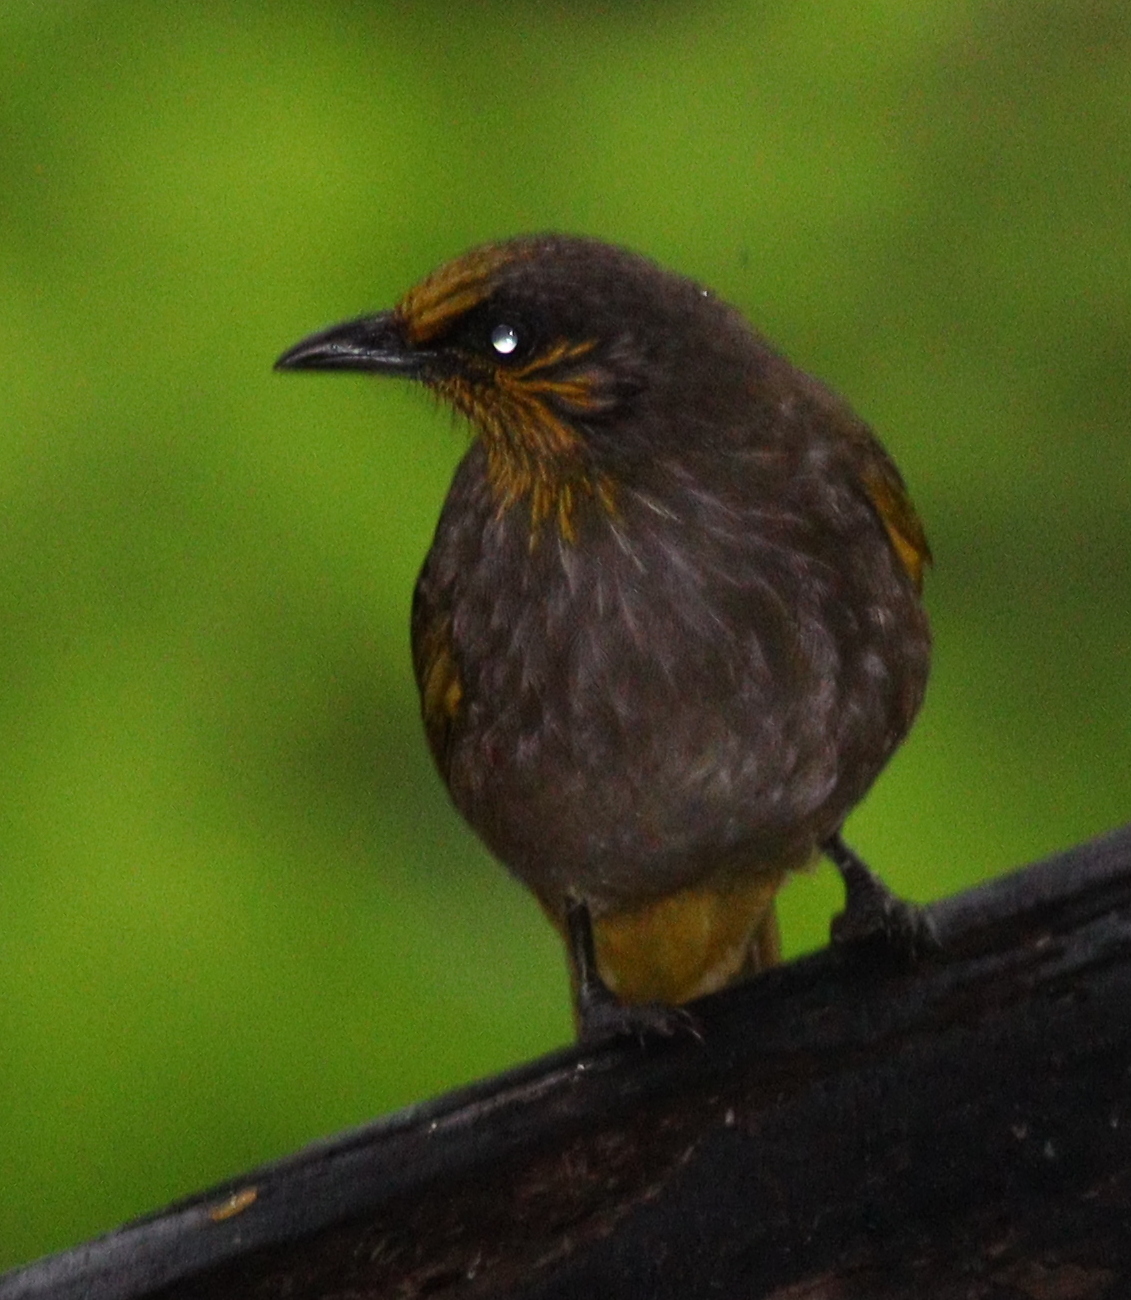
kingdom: Animalia
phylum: Chordata
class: Aves
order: Passeriformes
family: Pycnonotidae
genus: Pycnonotus
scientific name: Pycnonotus finlaysoni
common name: Stripe-throated bulbul
